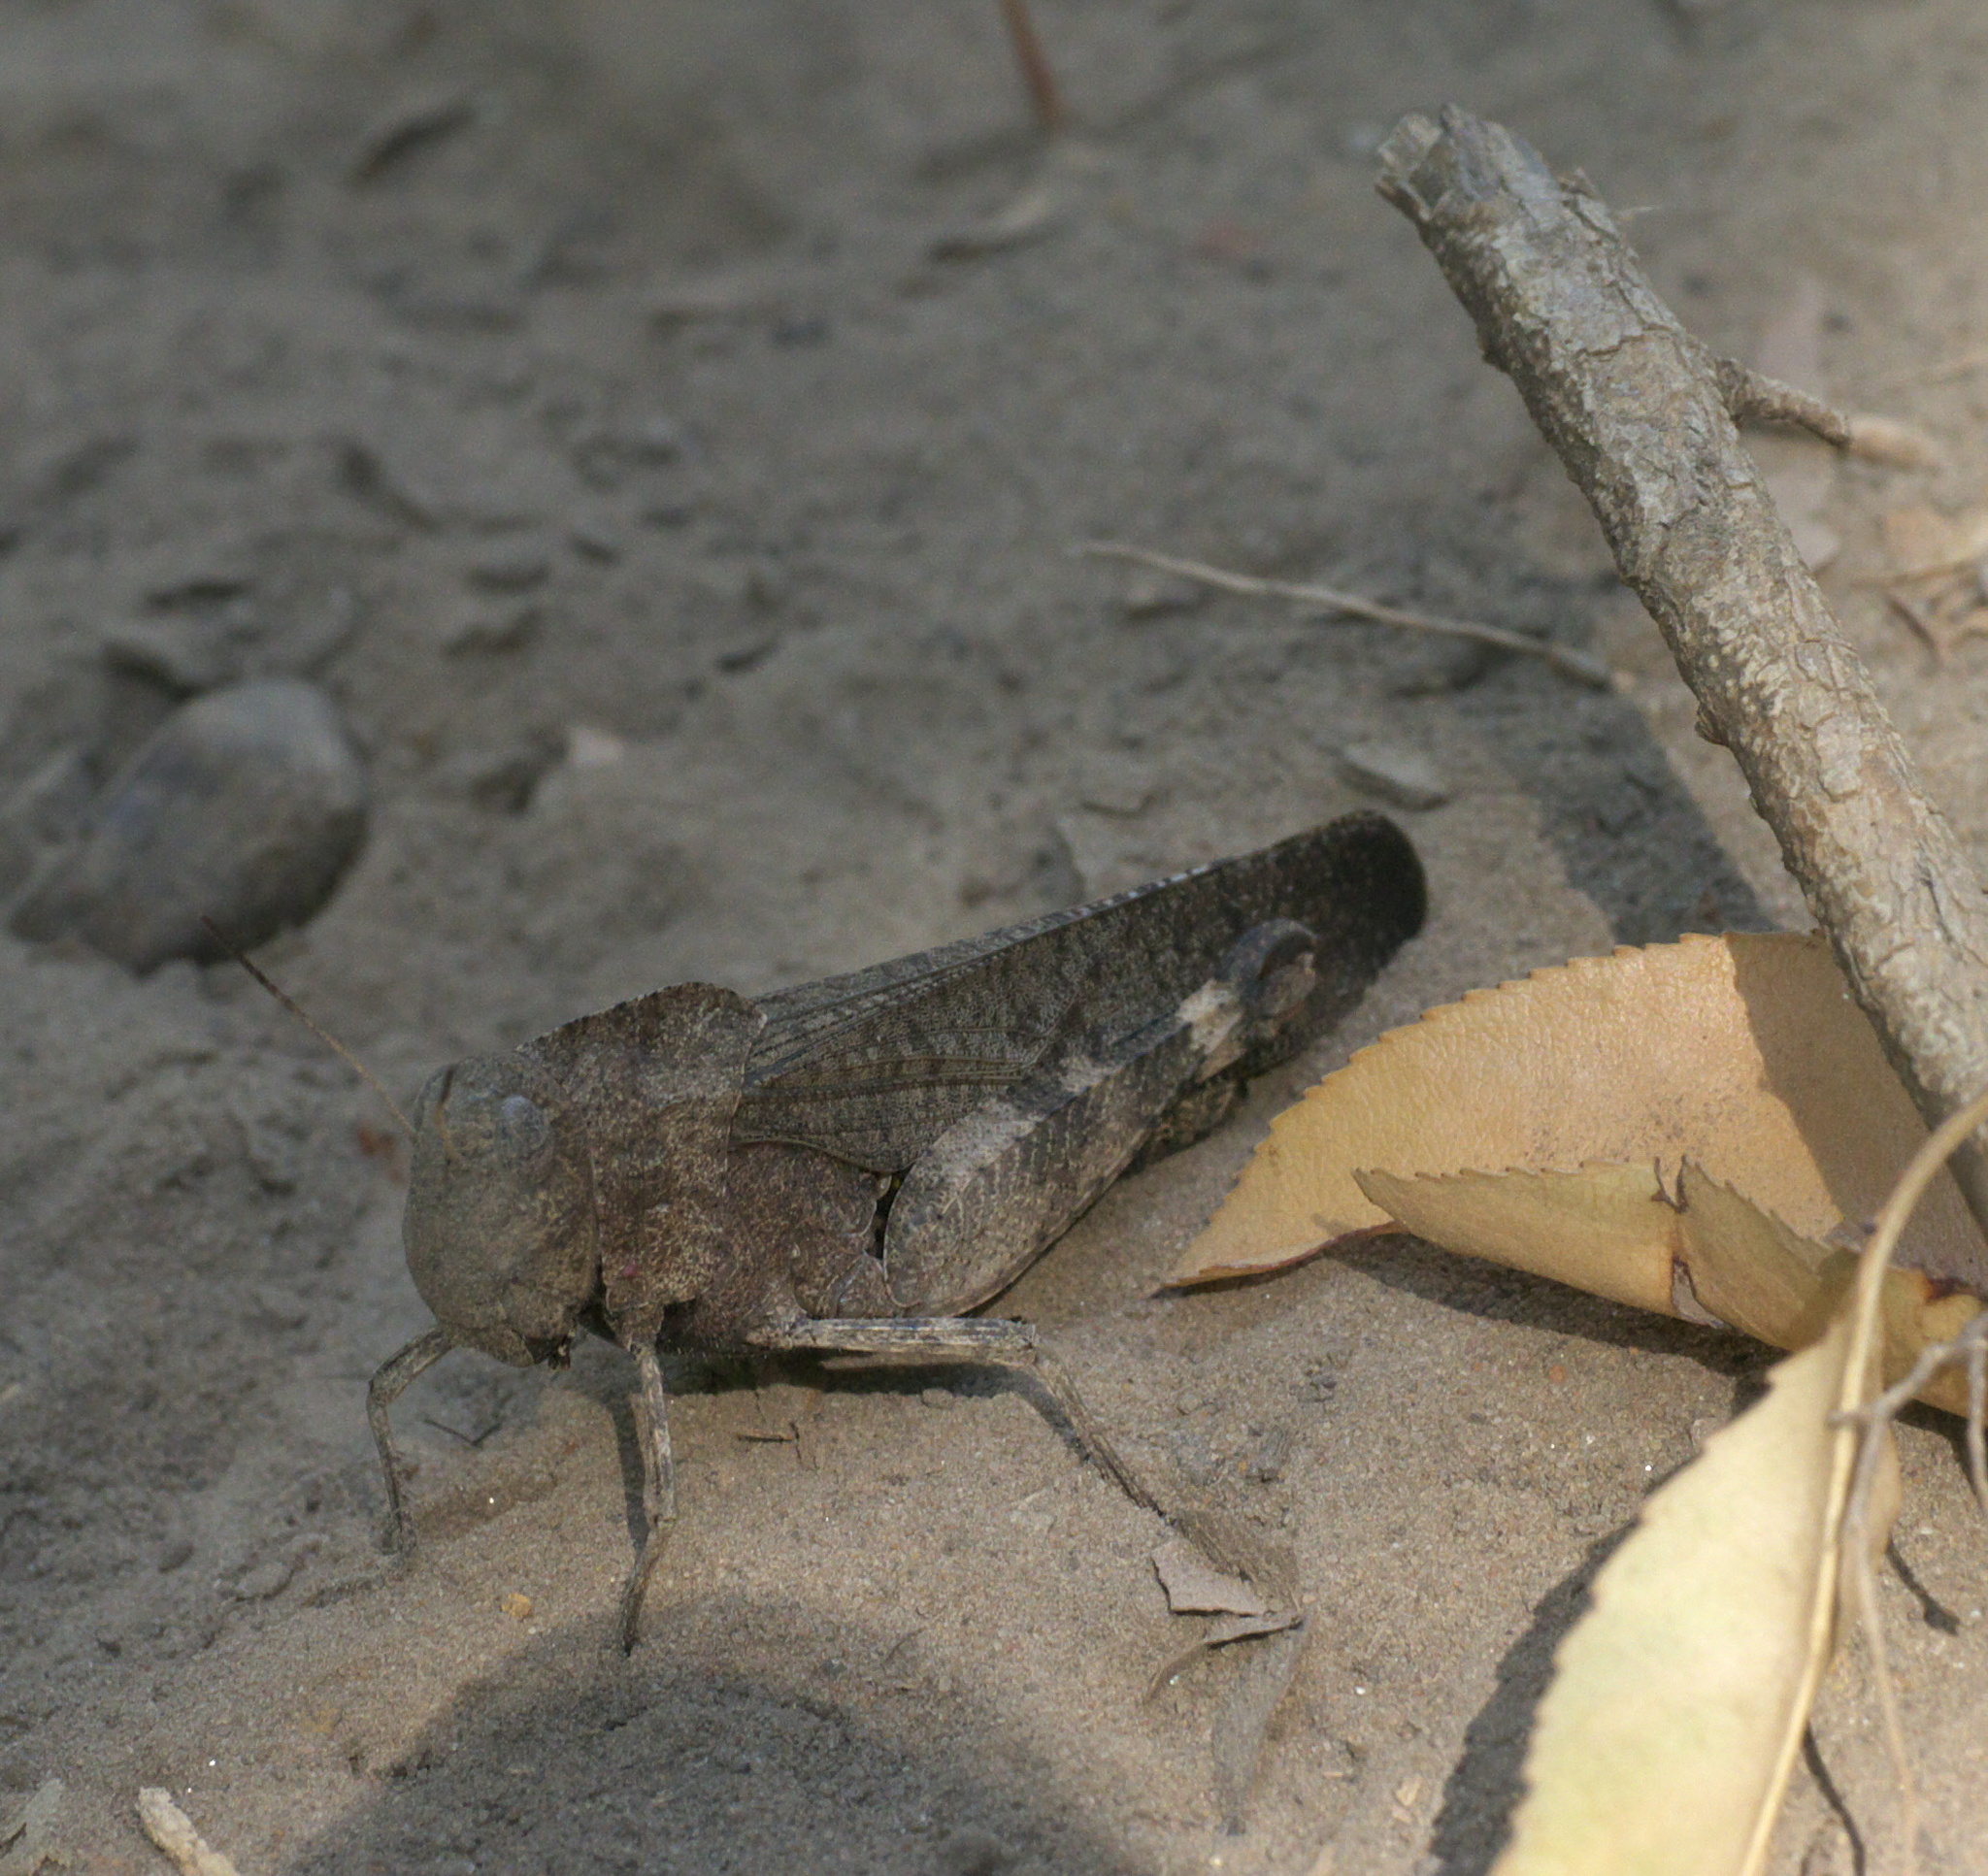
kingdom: Animalia
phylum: Arthropoda
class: Insecta
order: Orthoptera
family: Acrididae
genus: Arphia
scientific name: Arphia xanthoptera
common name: Autumn yellow-winged grasshopper
